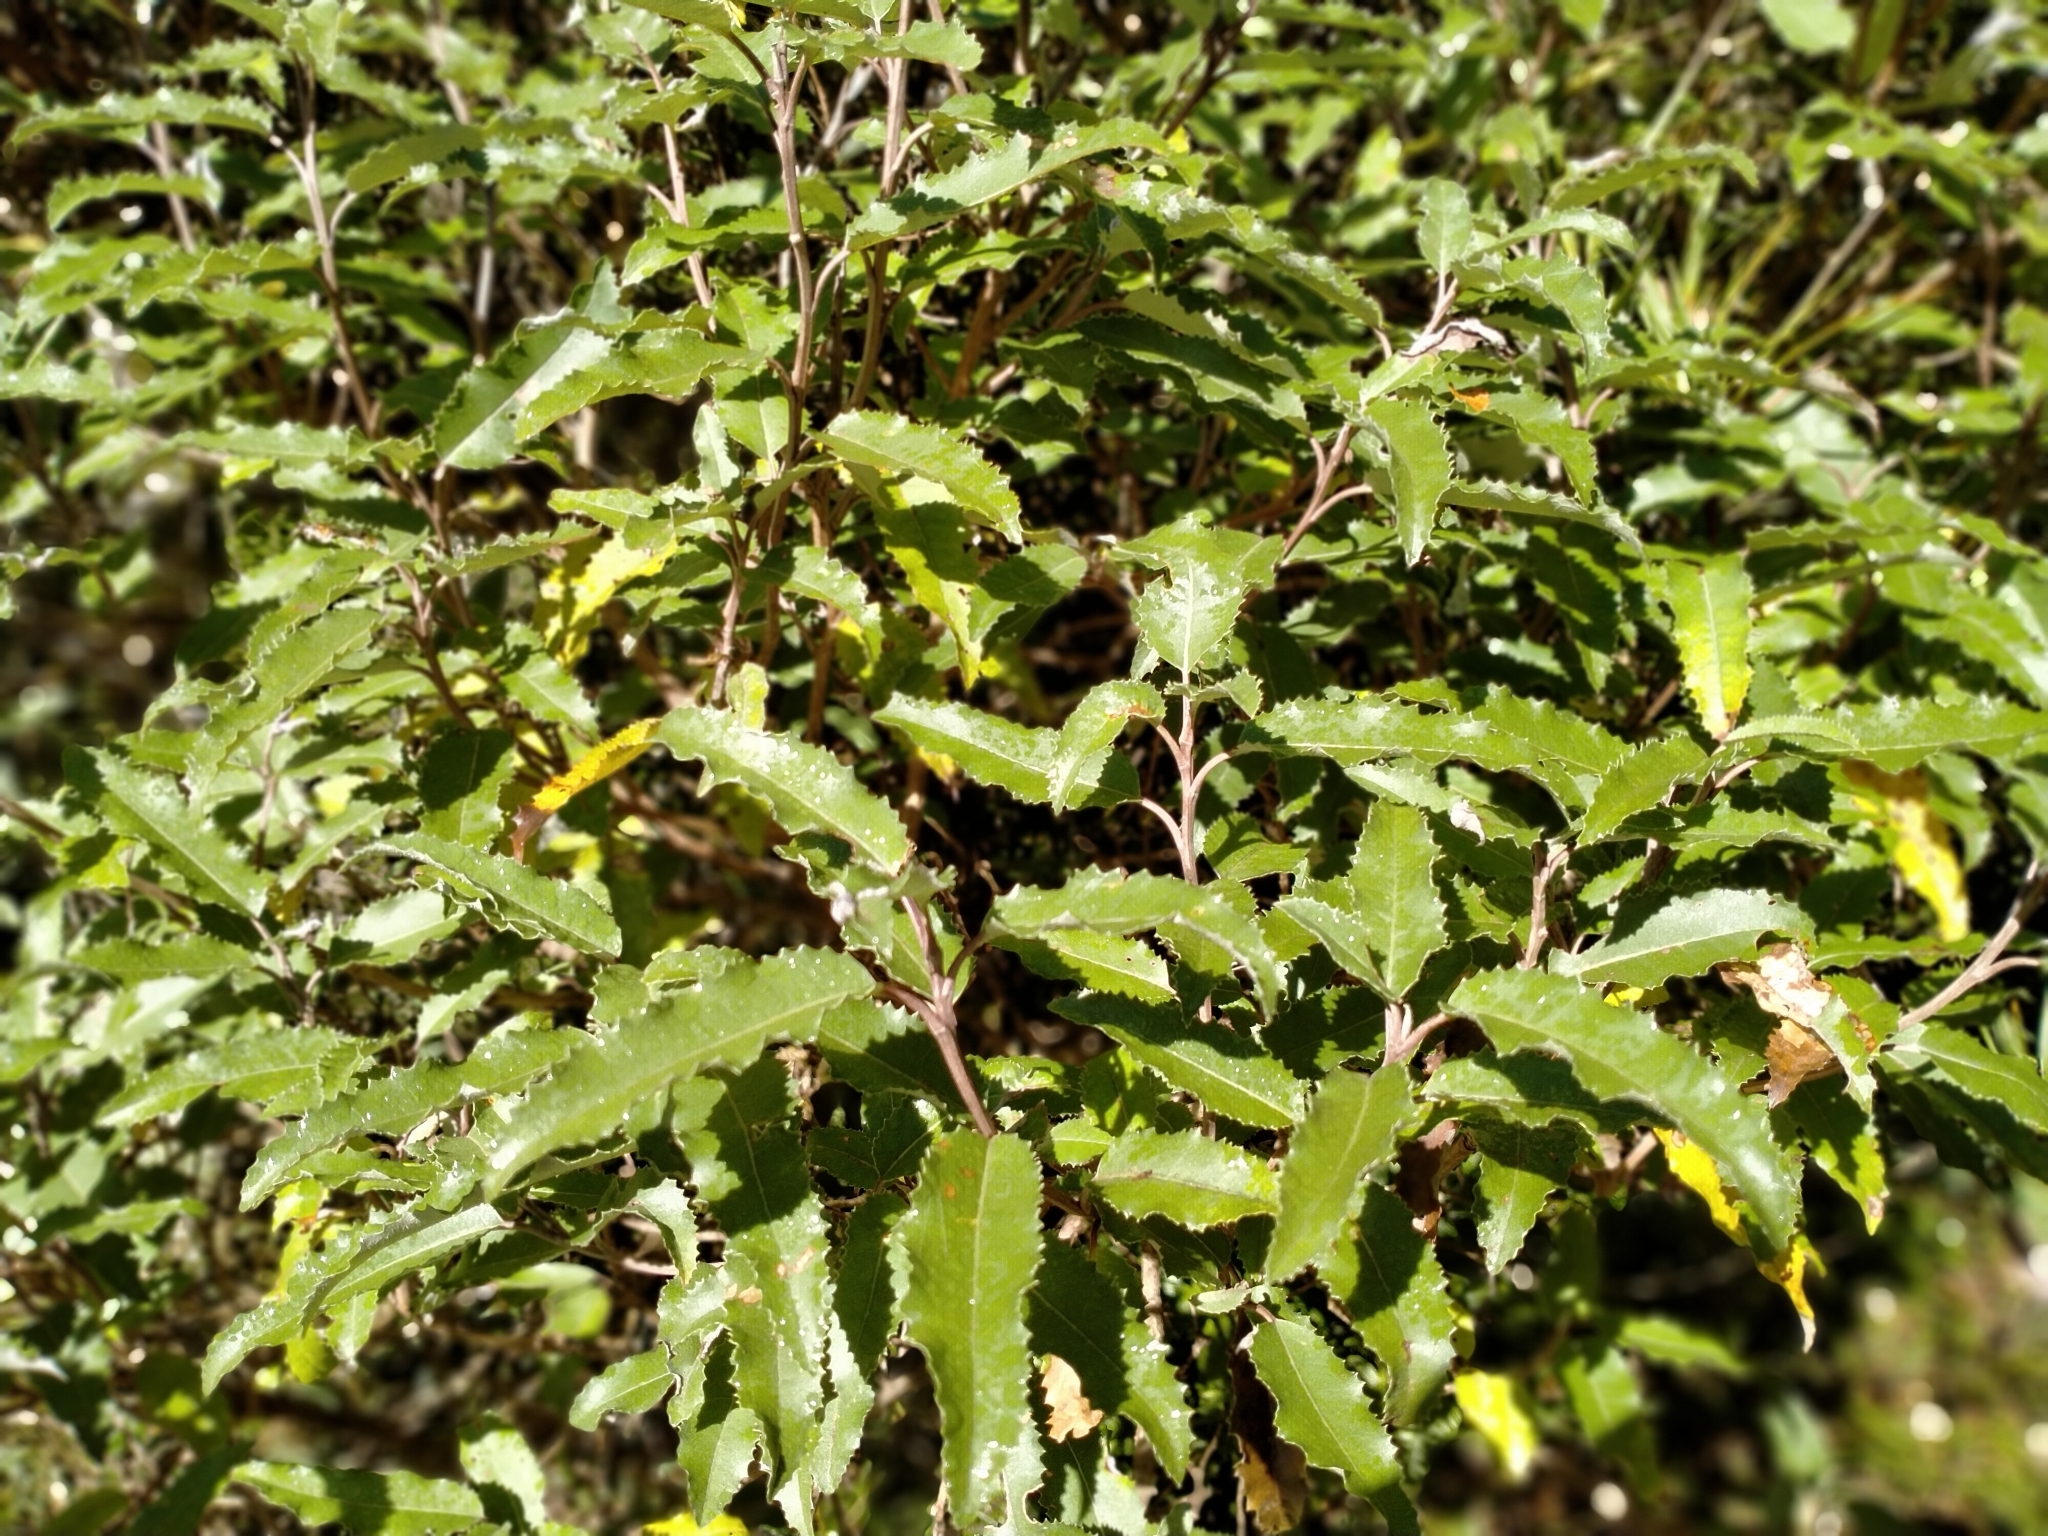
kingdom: Plantae
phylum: Tracheophyta
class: Magnoliopsida
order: Asterales
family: Asteraceae
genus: Olearia
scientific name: Olearia ilicifolia
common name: Maori-holly
